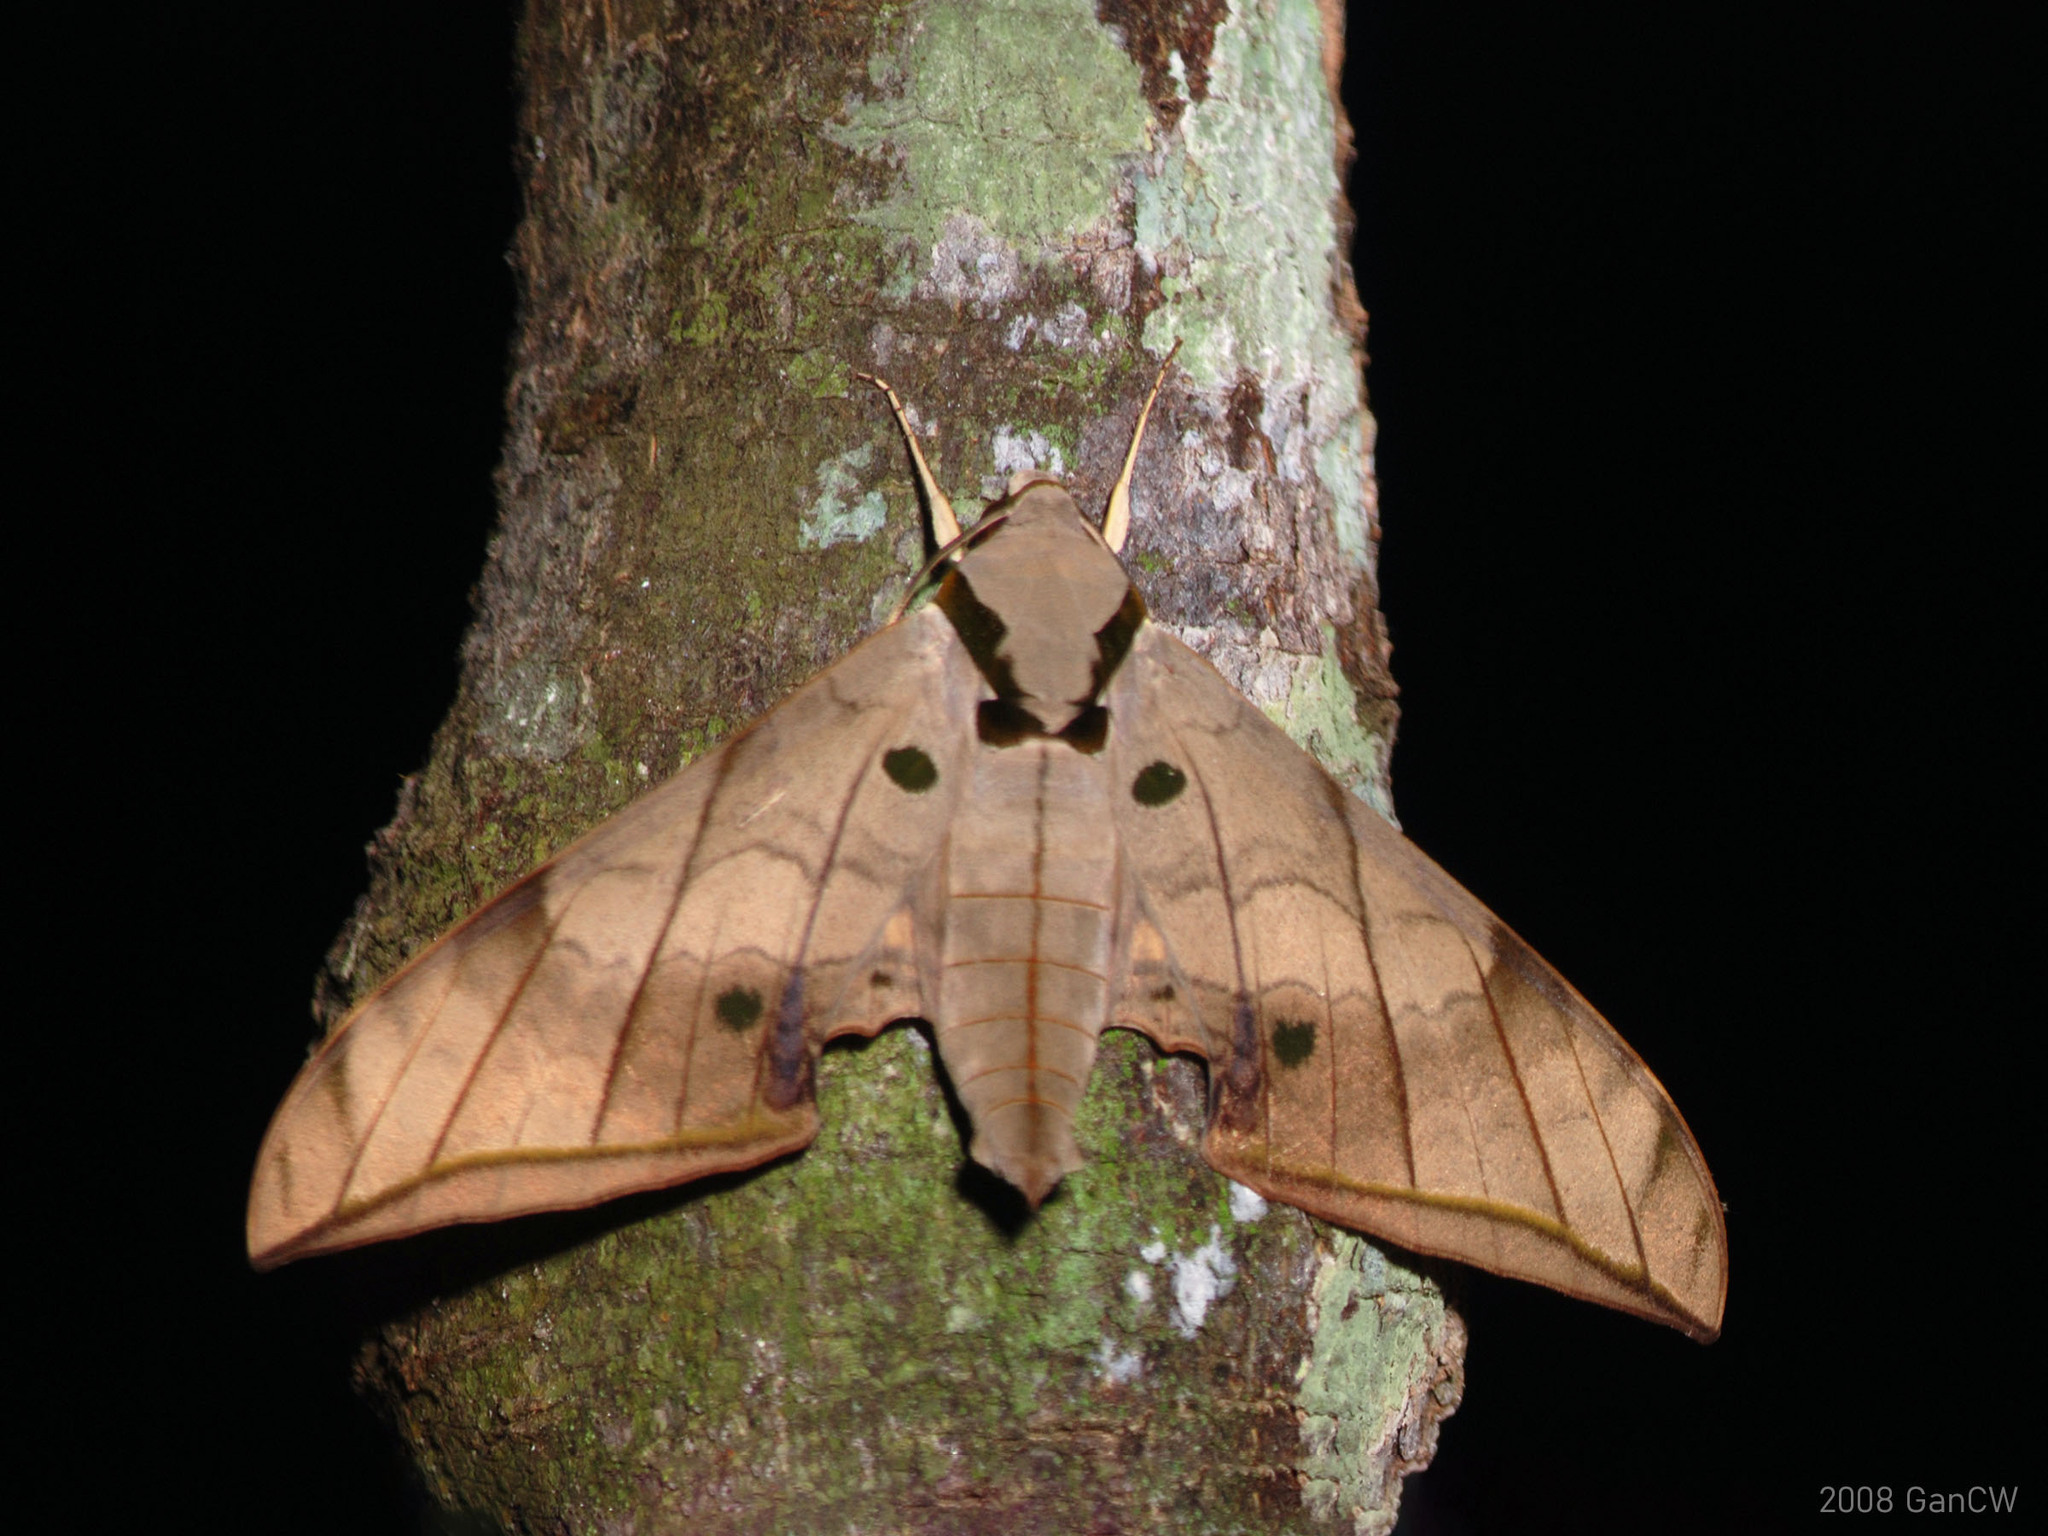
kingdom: Animalia
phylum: Arthropoda
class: Insecta
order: Lepidoptera
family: Sphingidae
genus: Ambulyx
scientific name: Ambulyx substrigilis
